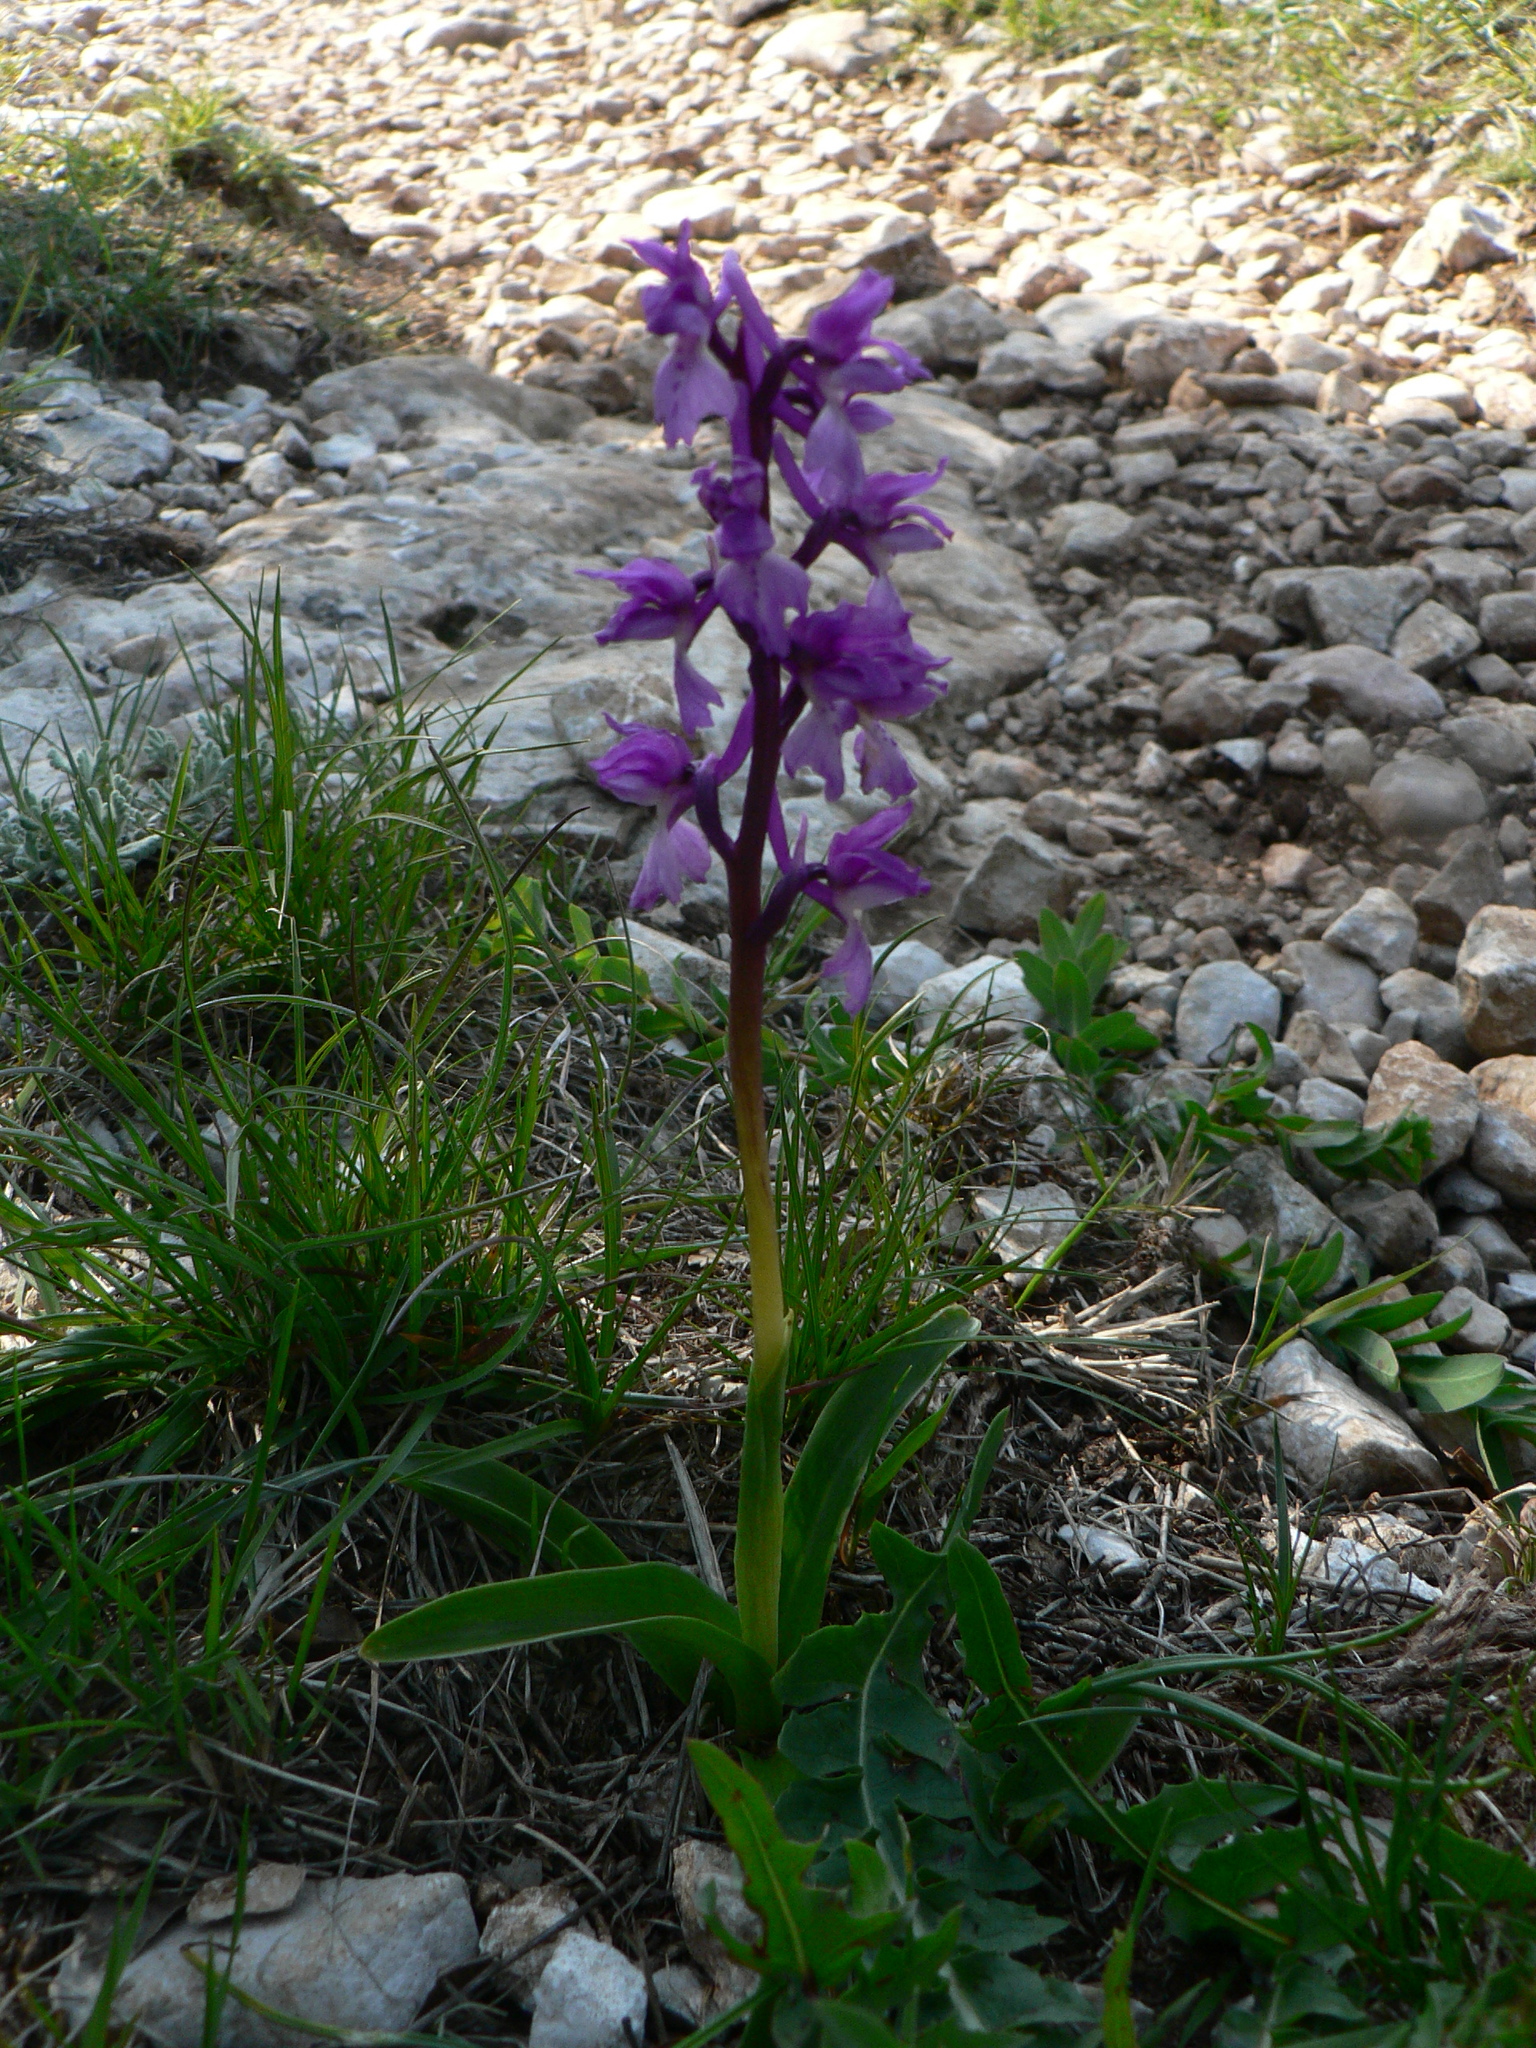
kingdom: Plantae
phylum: Tracheophyta
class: Liliopsida
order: Asparagales
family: Orchidaceae
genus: Orchis
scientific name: Orchis olbiensis
